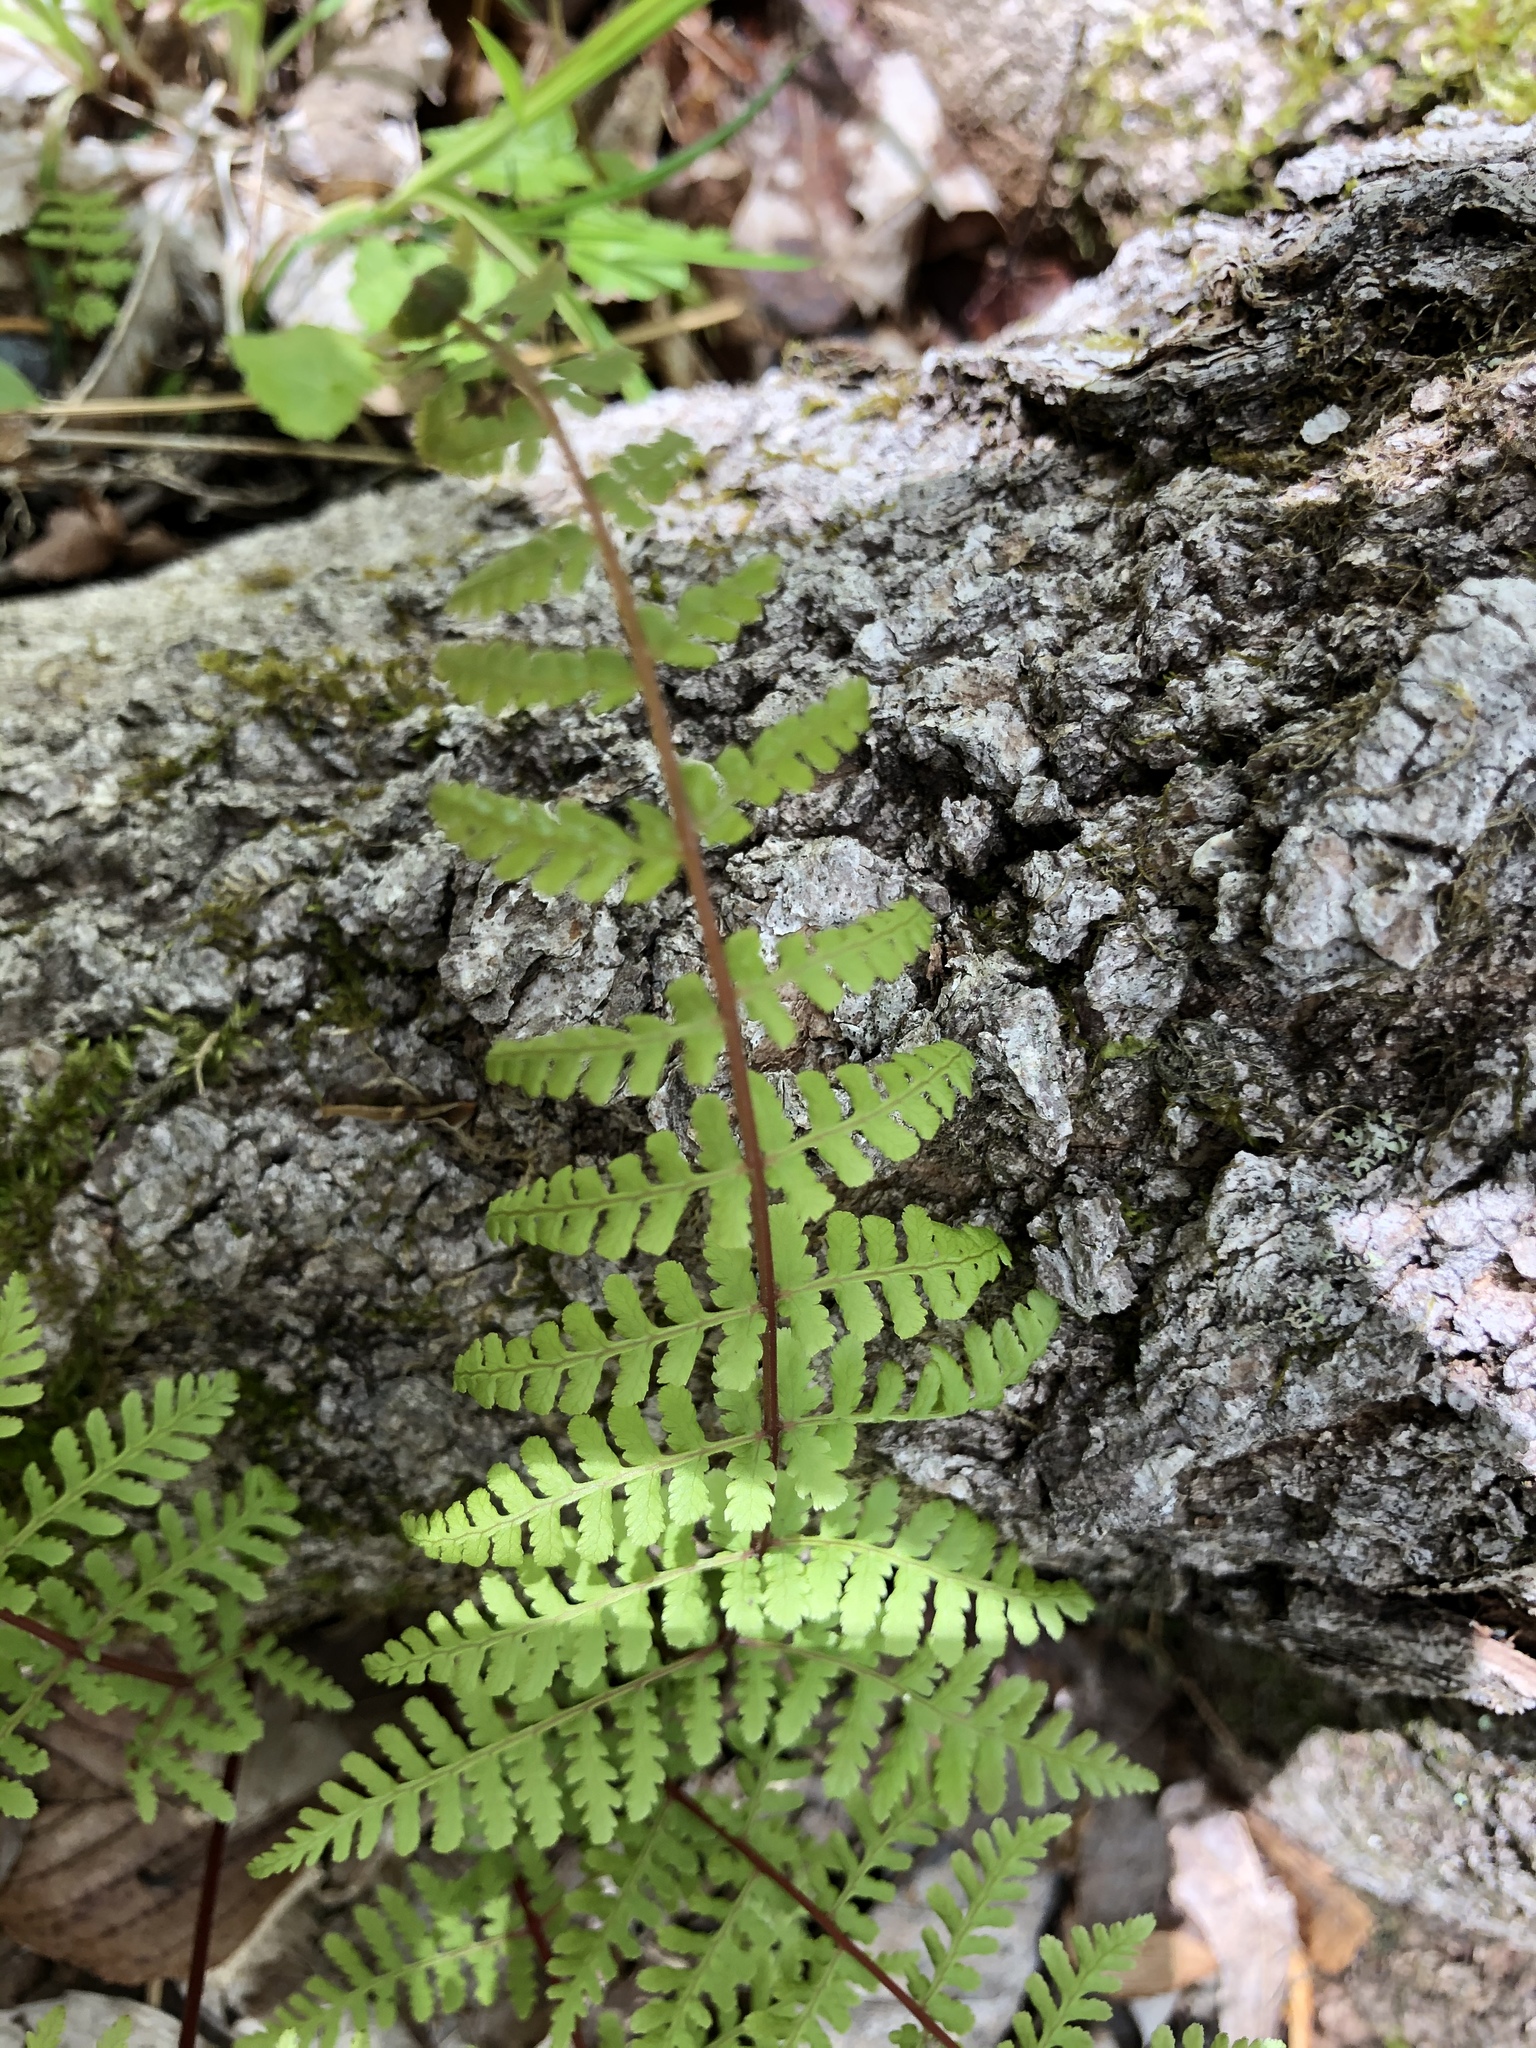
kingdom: Plantae
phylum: Tracheophyta
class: Polypodiopsida
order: Polypodiales
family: Cystopteridaceae
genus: Cystopteris
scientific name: Cystopteris bulbifera
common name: Bulblet bladder fern
